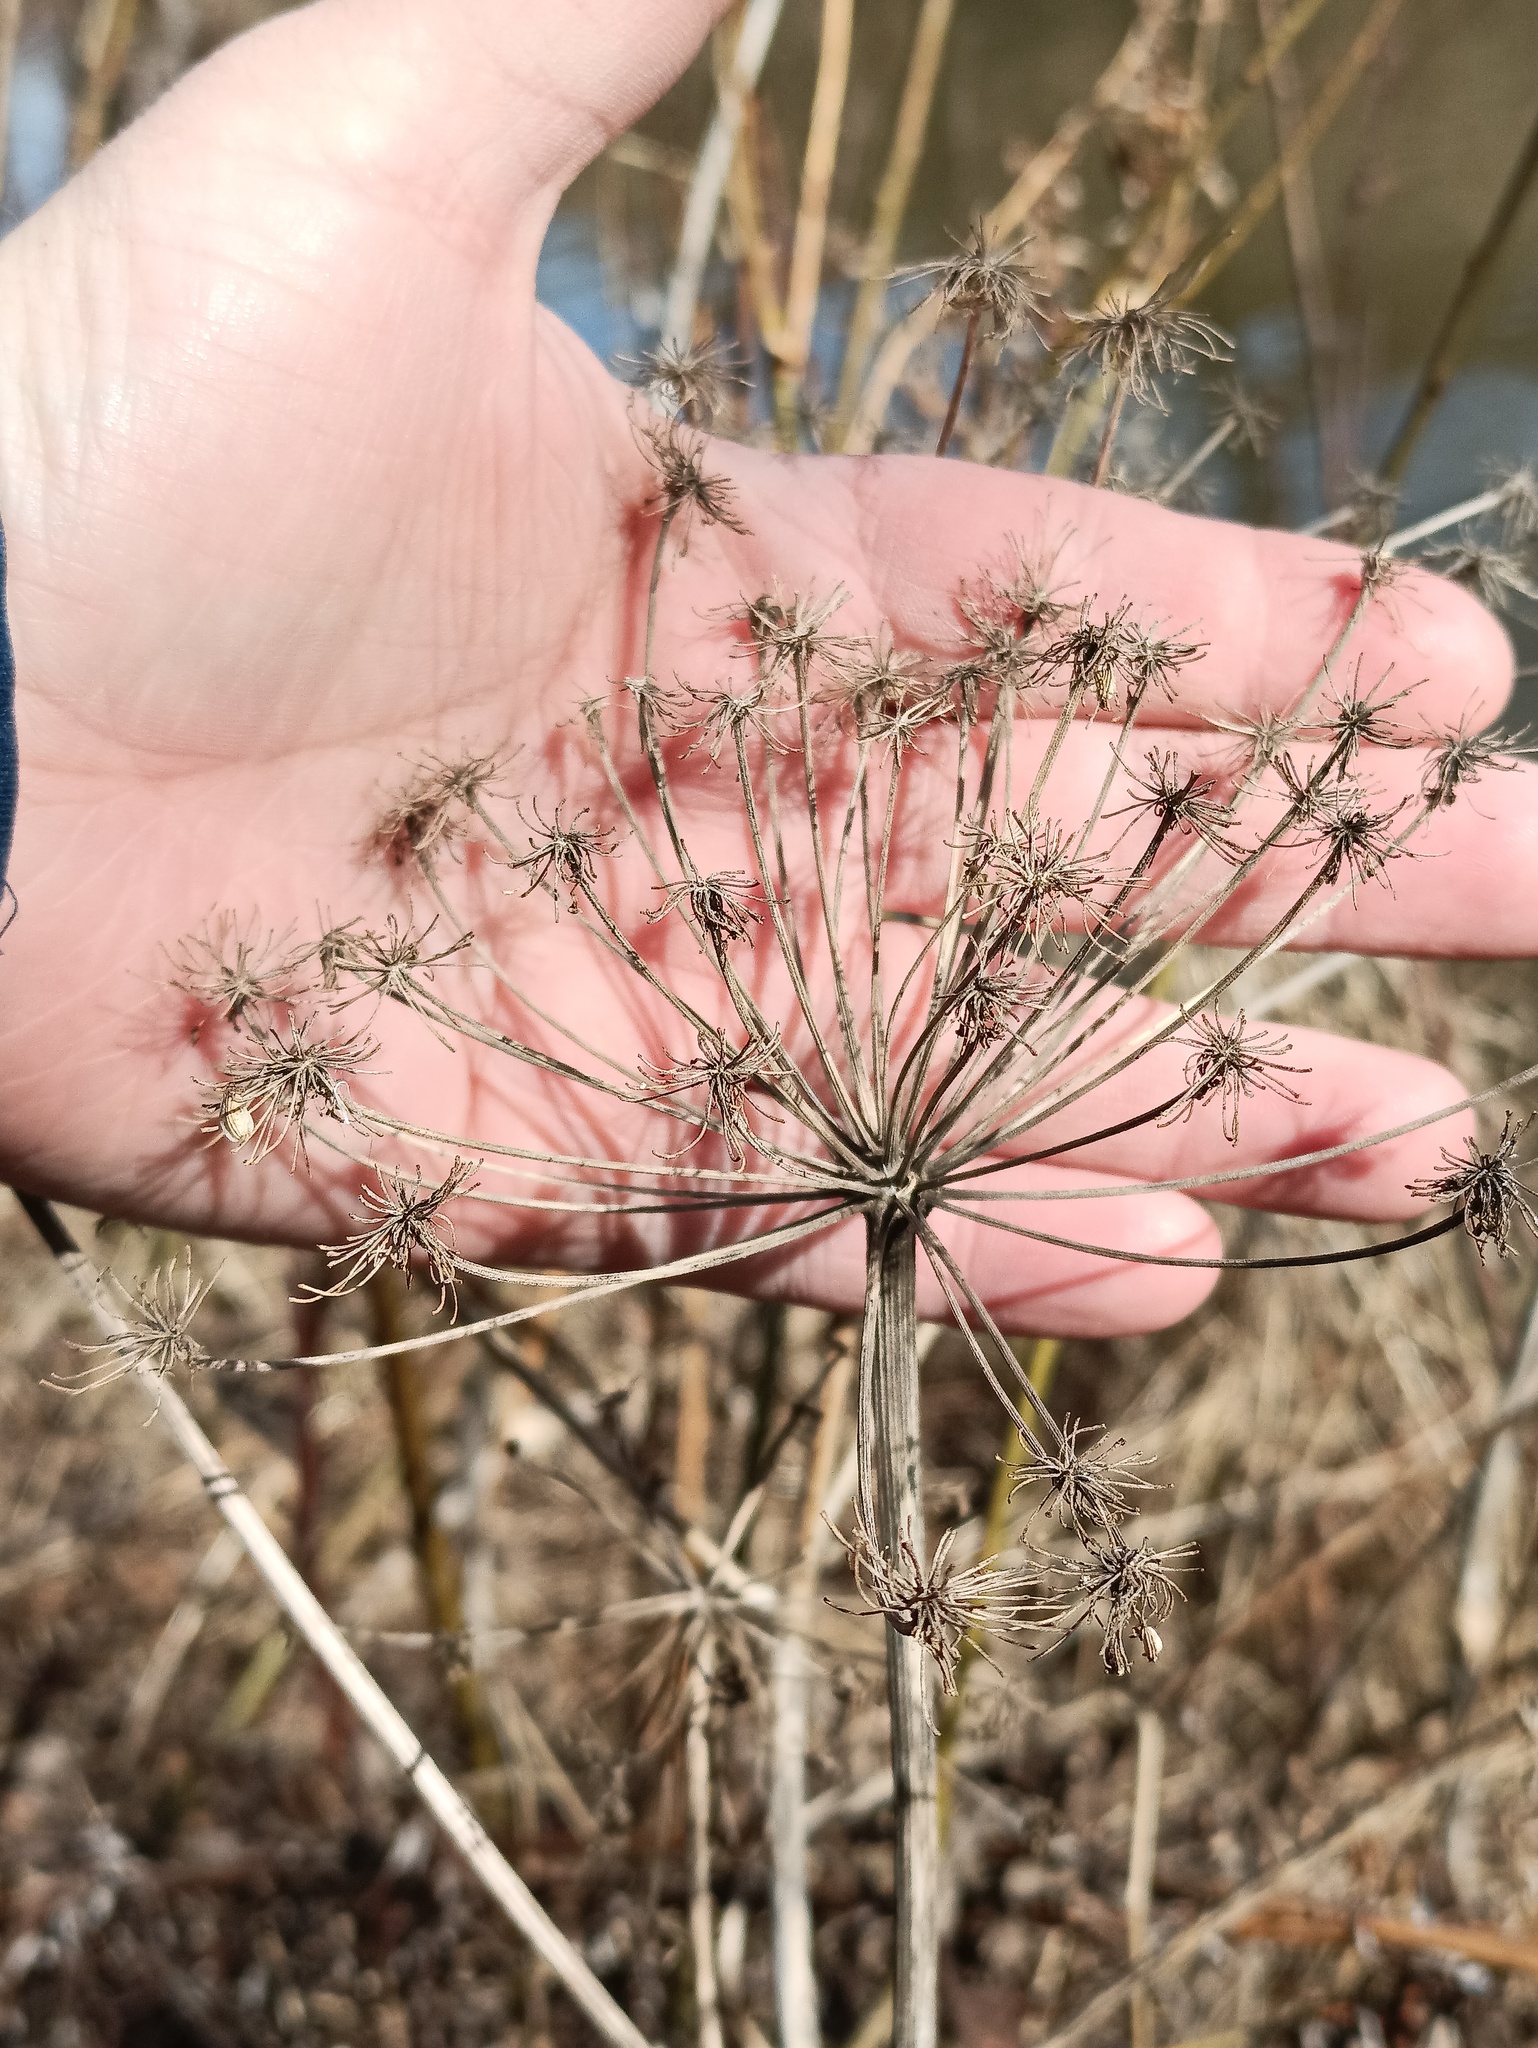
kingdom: Plantae
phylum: Tracheophyta
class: Magnoliopsida
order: Apiales
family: Apiaceae
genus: Angelica
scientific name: Angelica sylvestris
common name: Wild angelica
